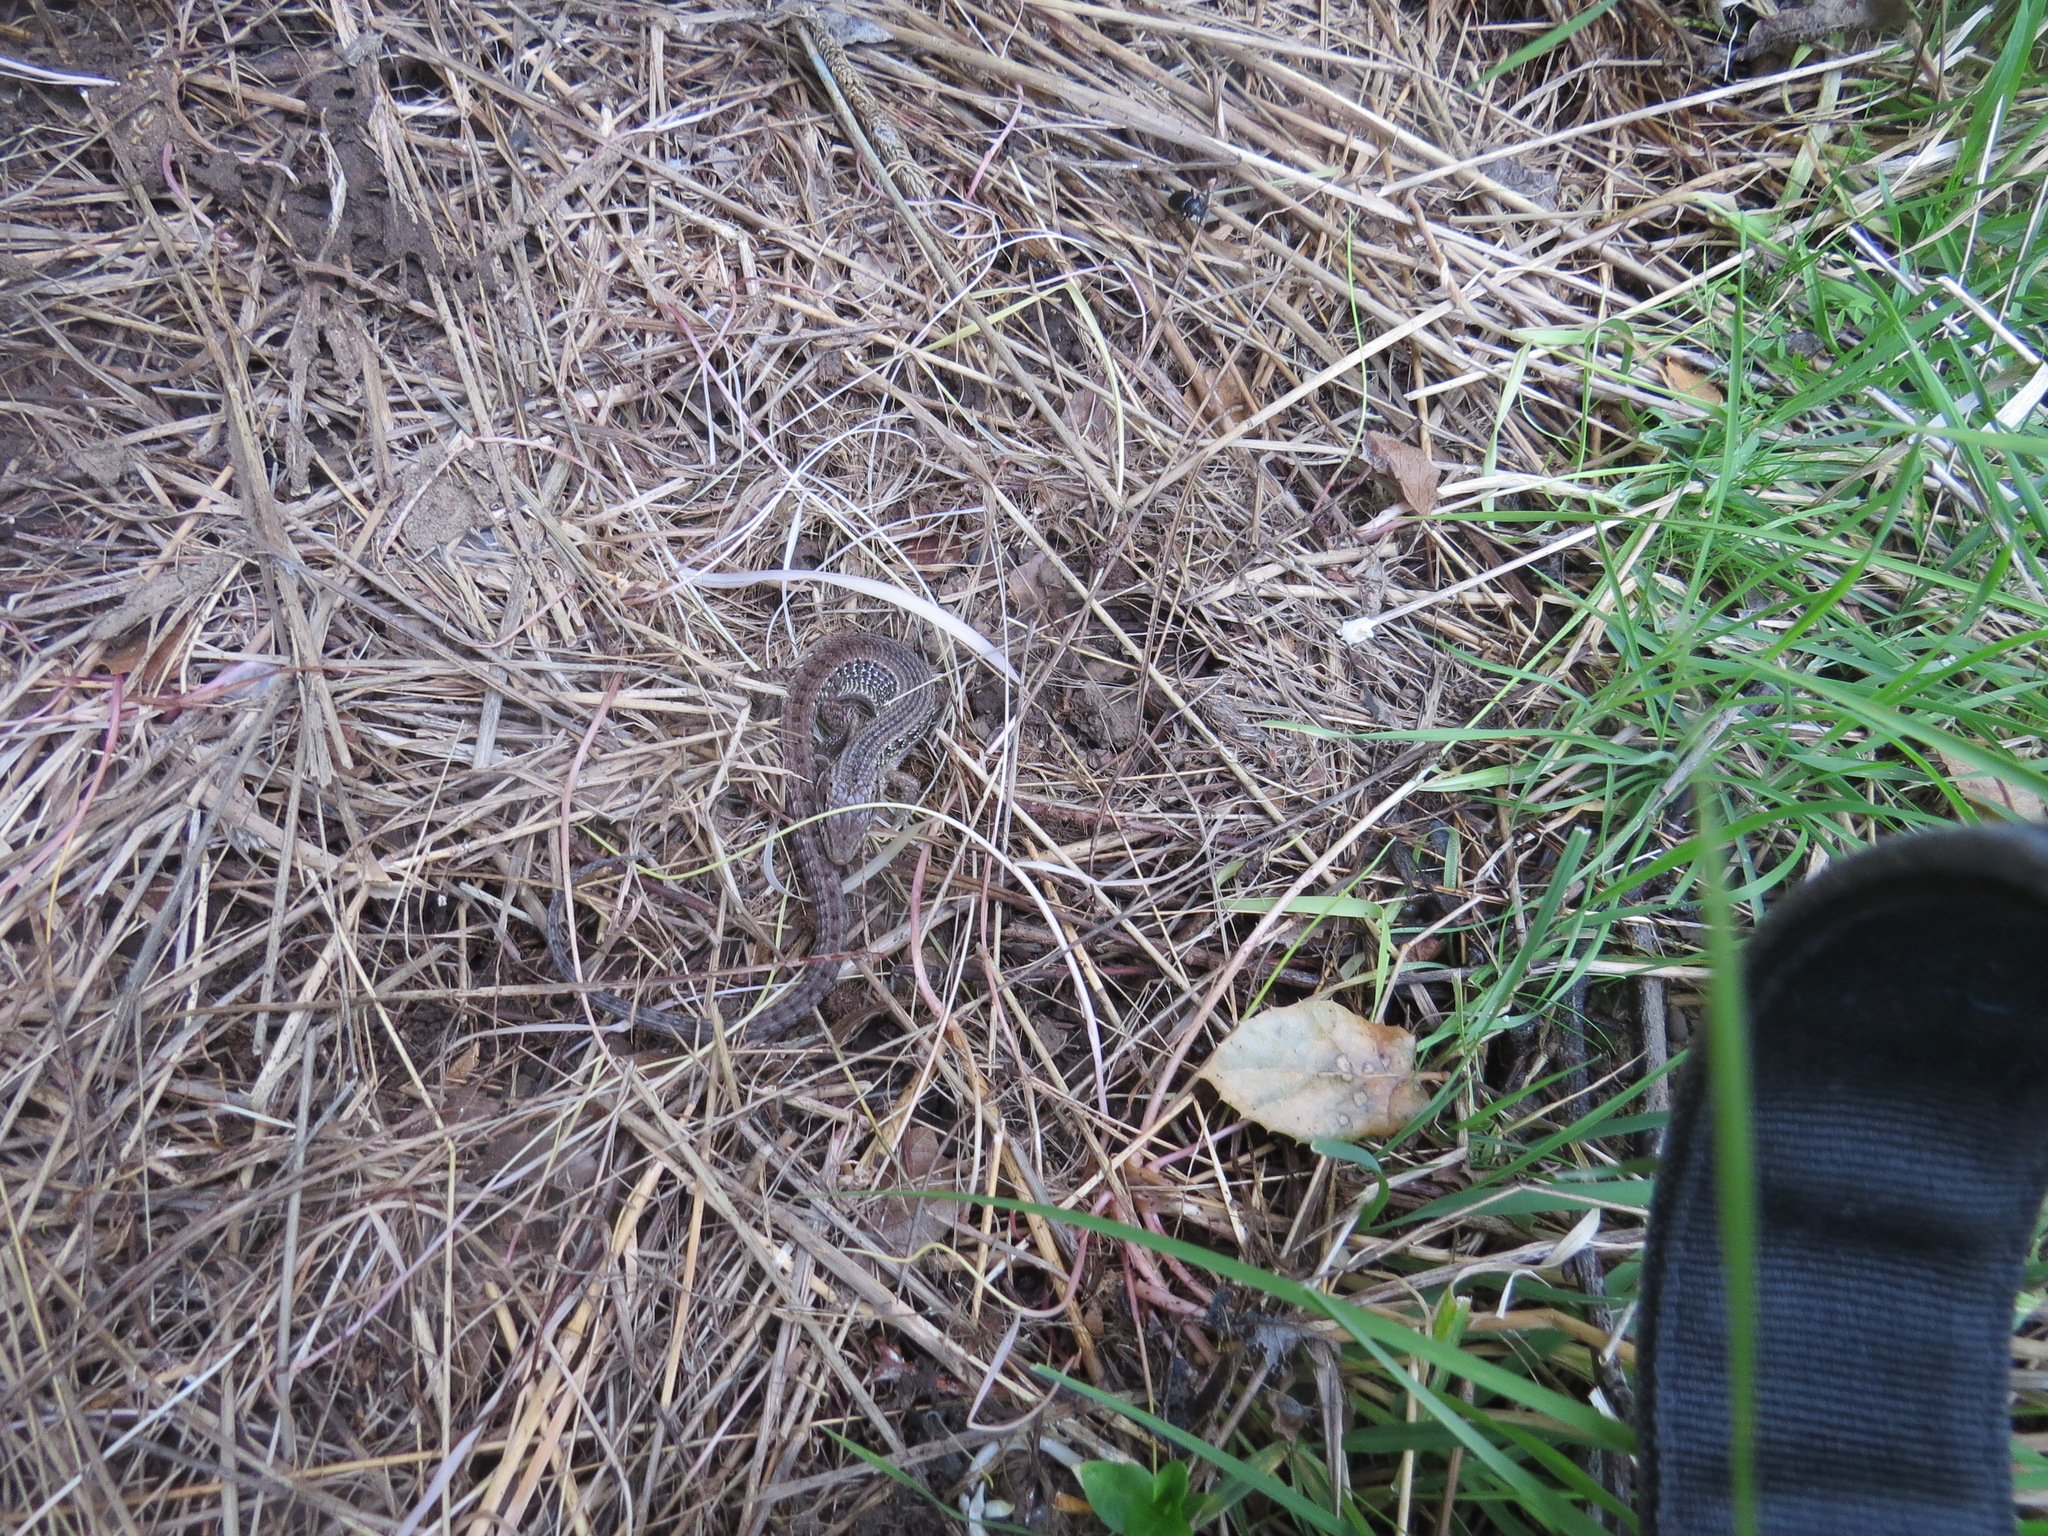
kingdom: Animalia
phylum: Chordata
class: Squamata
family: Anguidae
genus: Elgaria
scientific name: Elgaria coerulea
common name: Northern alligator lizard
